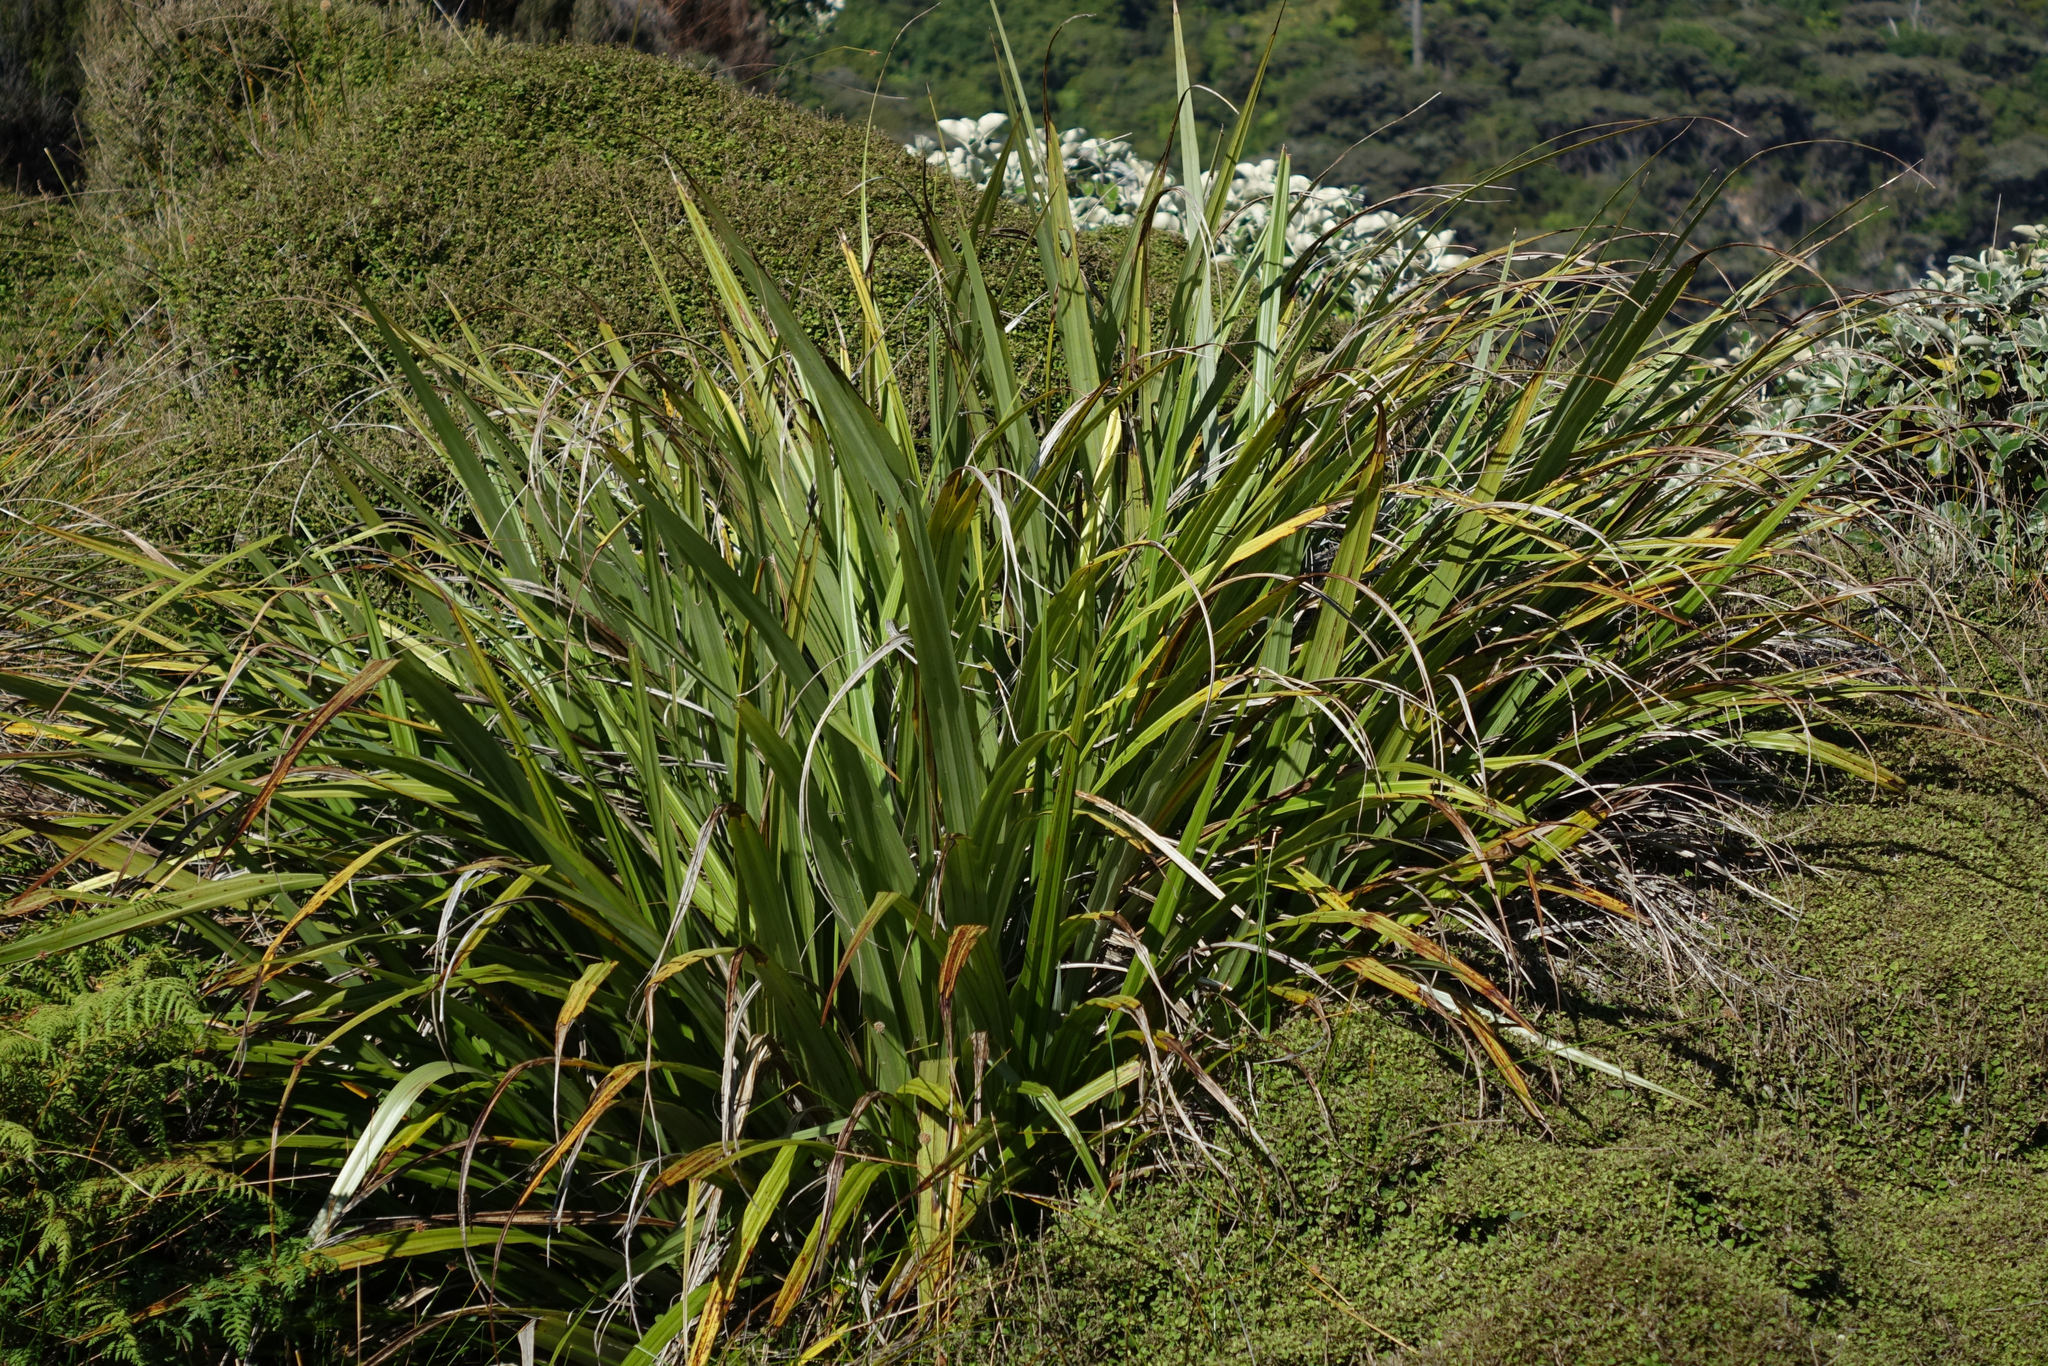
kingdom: Plantae
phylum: Tracheophyta
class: Liliopsida
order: Asparagales
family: Asteliaceae
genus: Astelia
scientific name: Astelia fragrans
